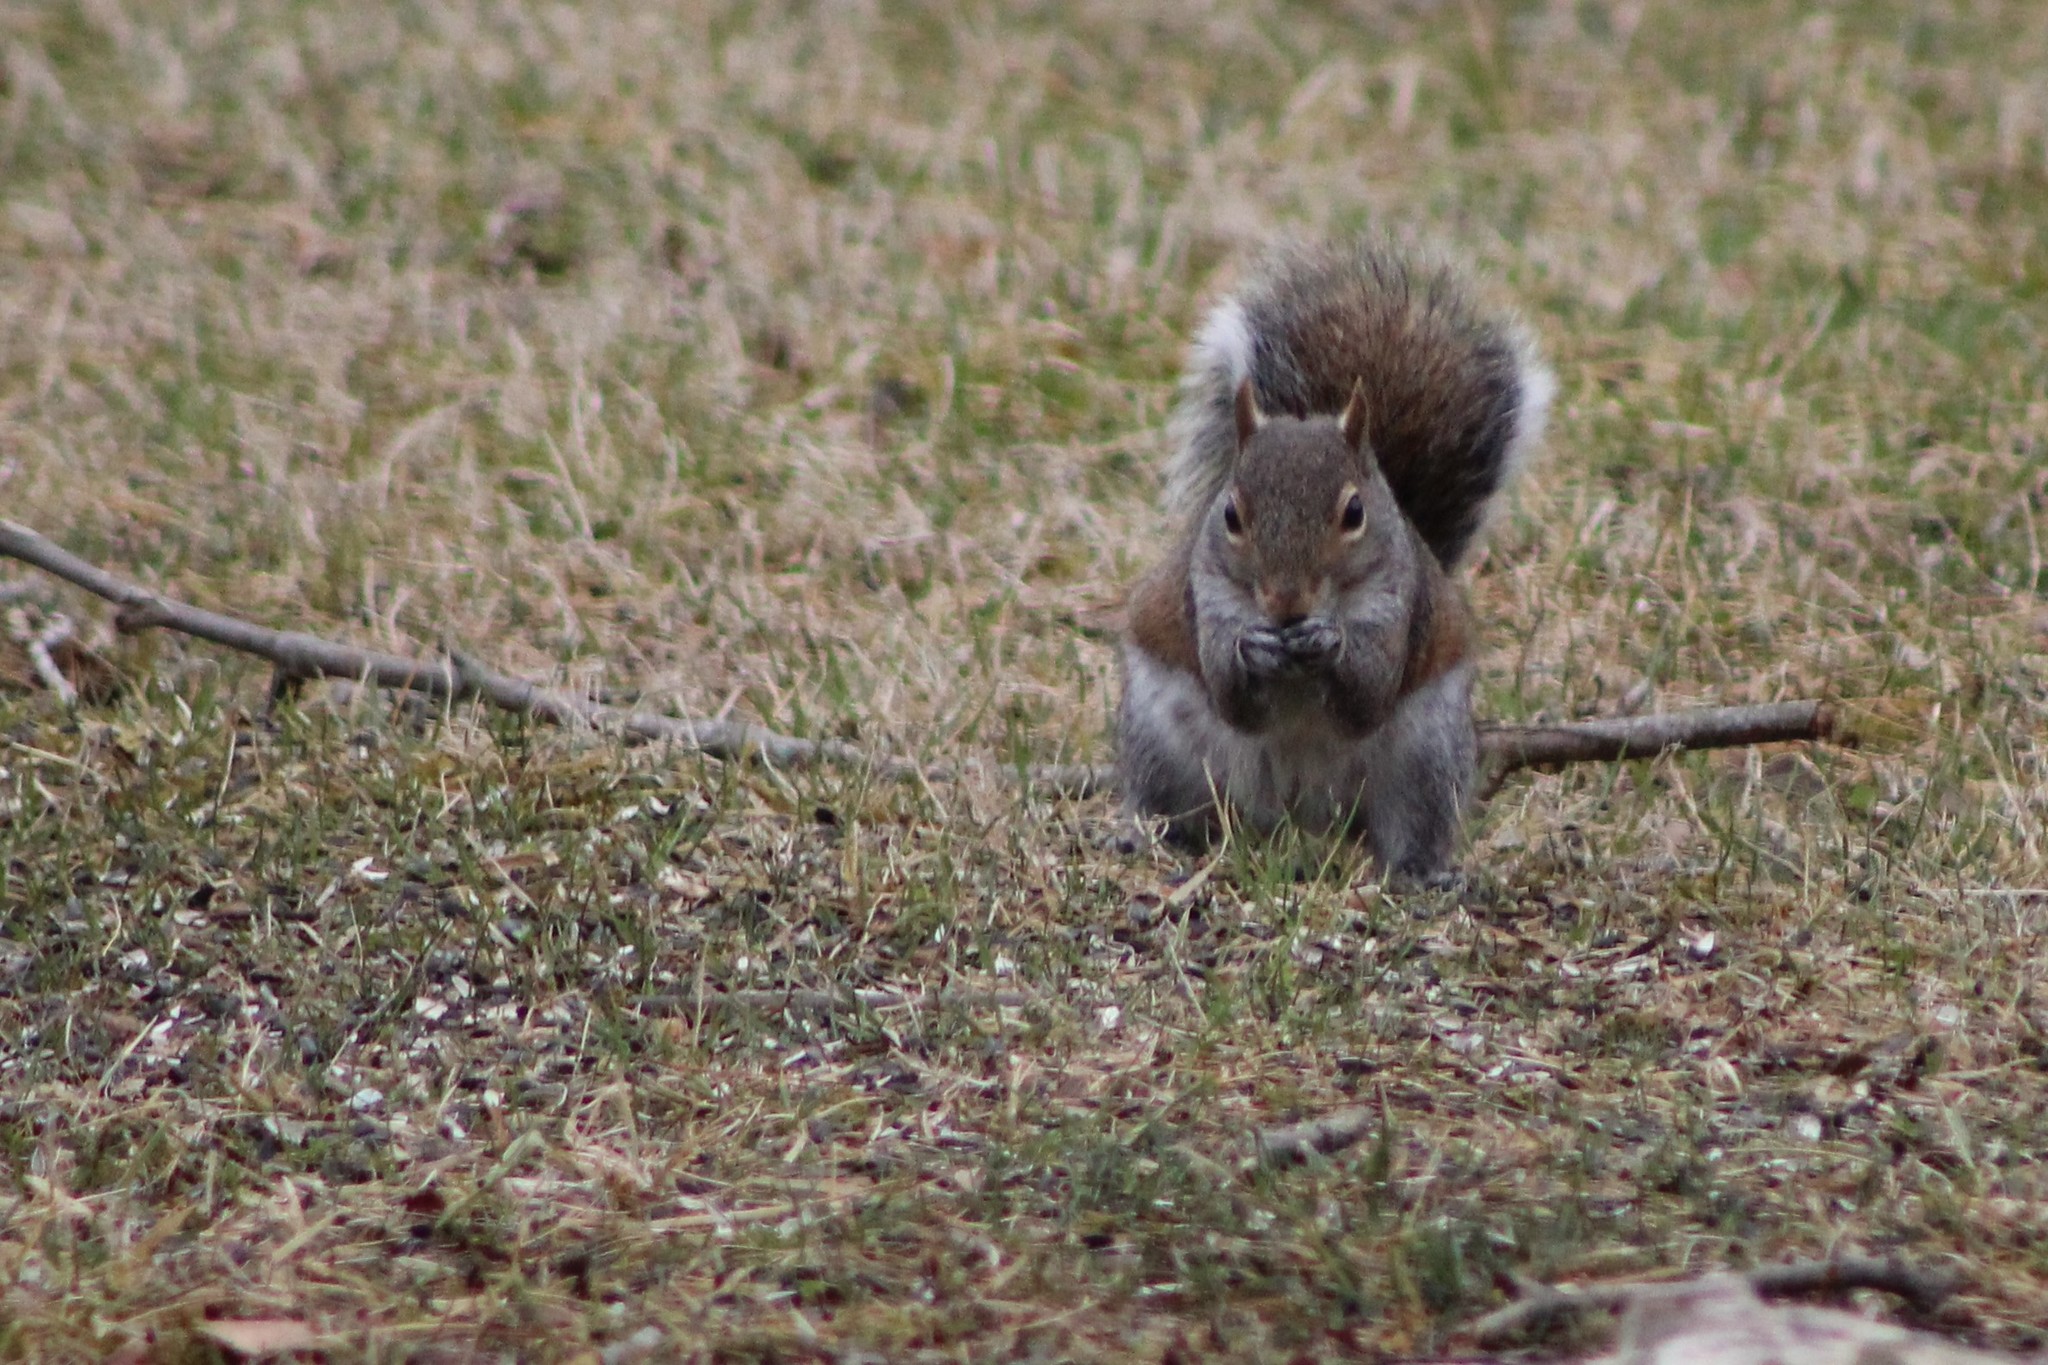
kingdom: Animalia
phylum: Chordata
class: Mammalia
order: Rodentia
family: Sciuridae
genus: Sciurus
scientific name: Sciurus carolinensis
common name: Eastern gray squirrel
